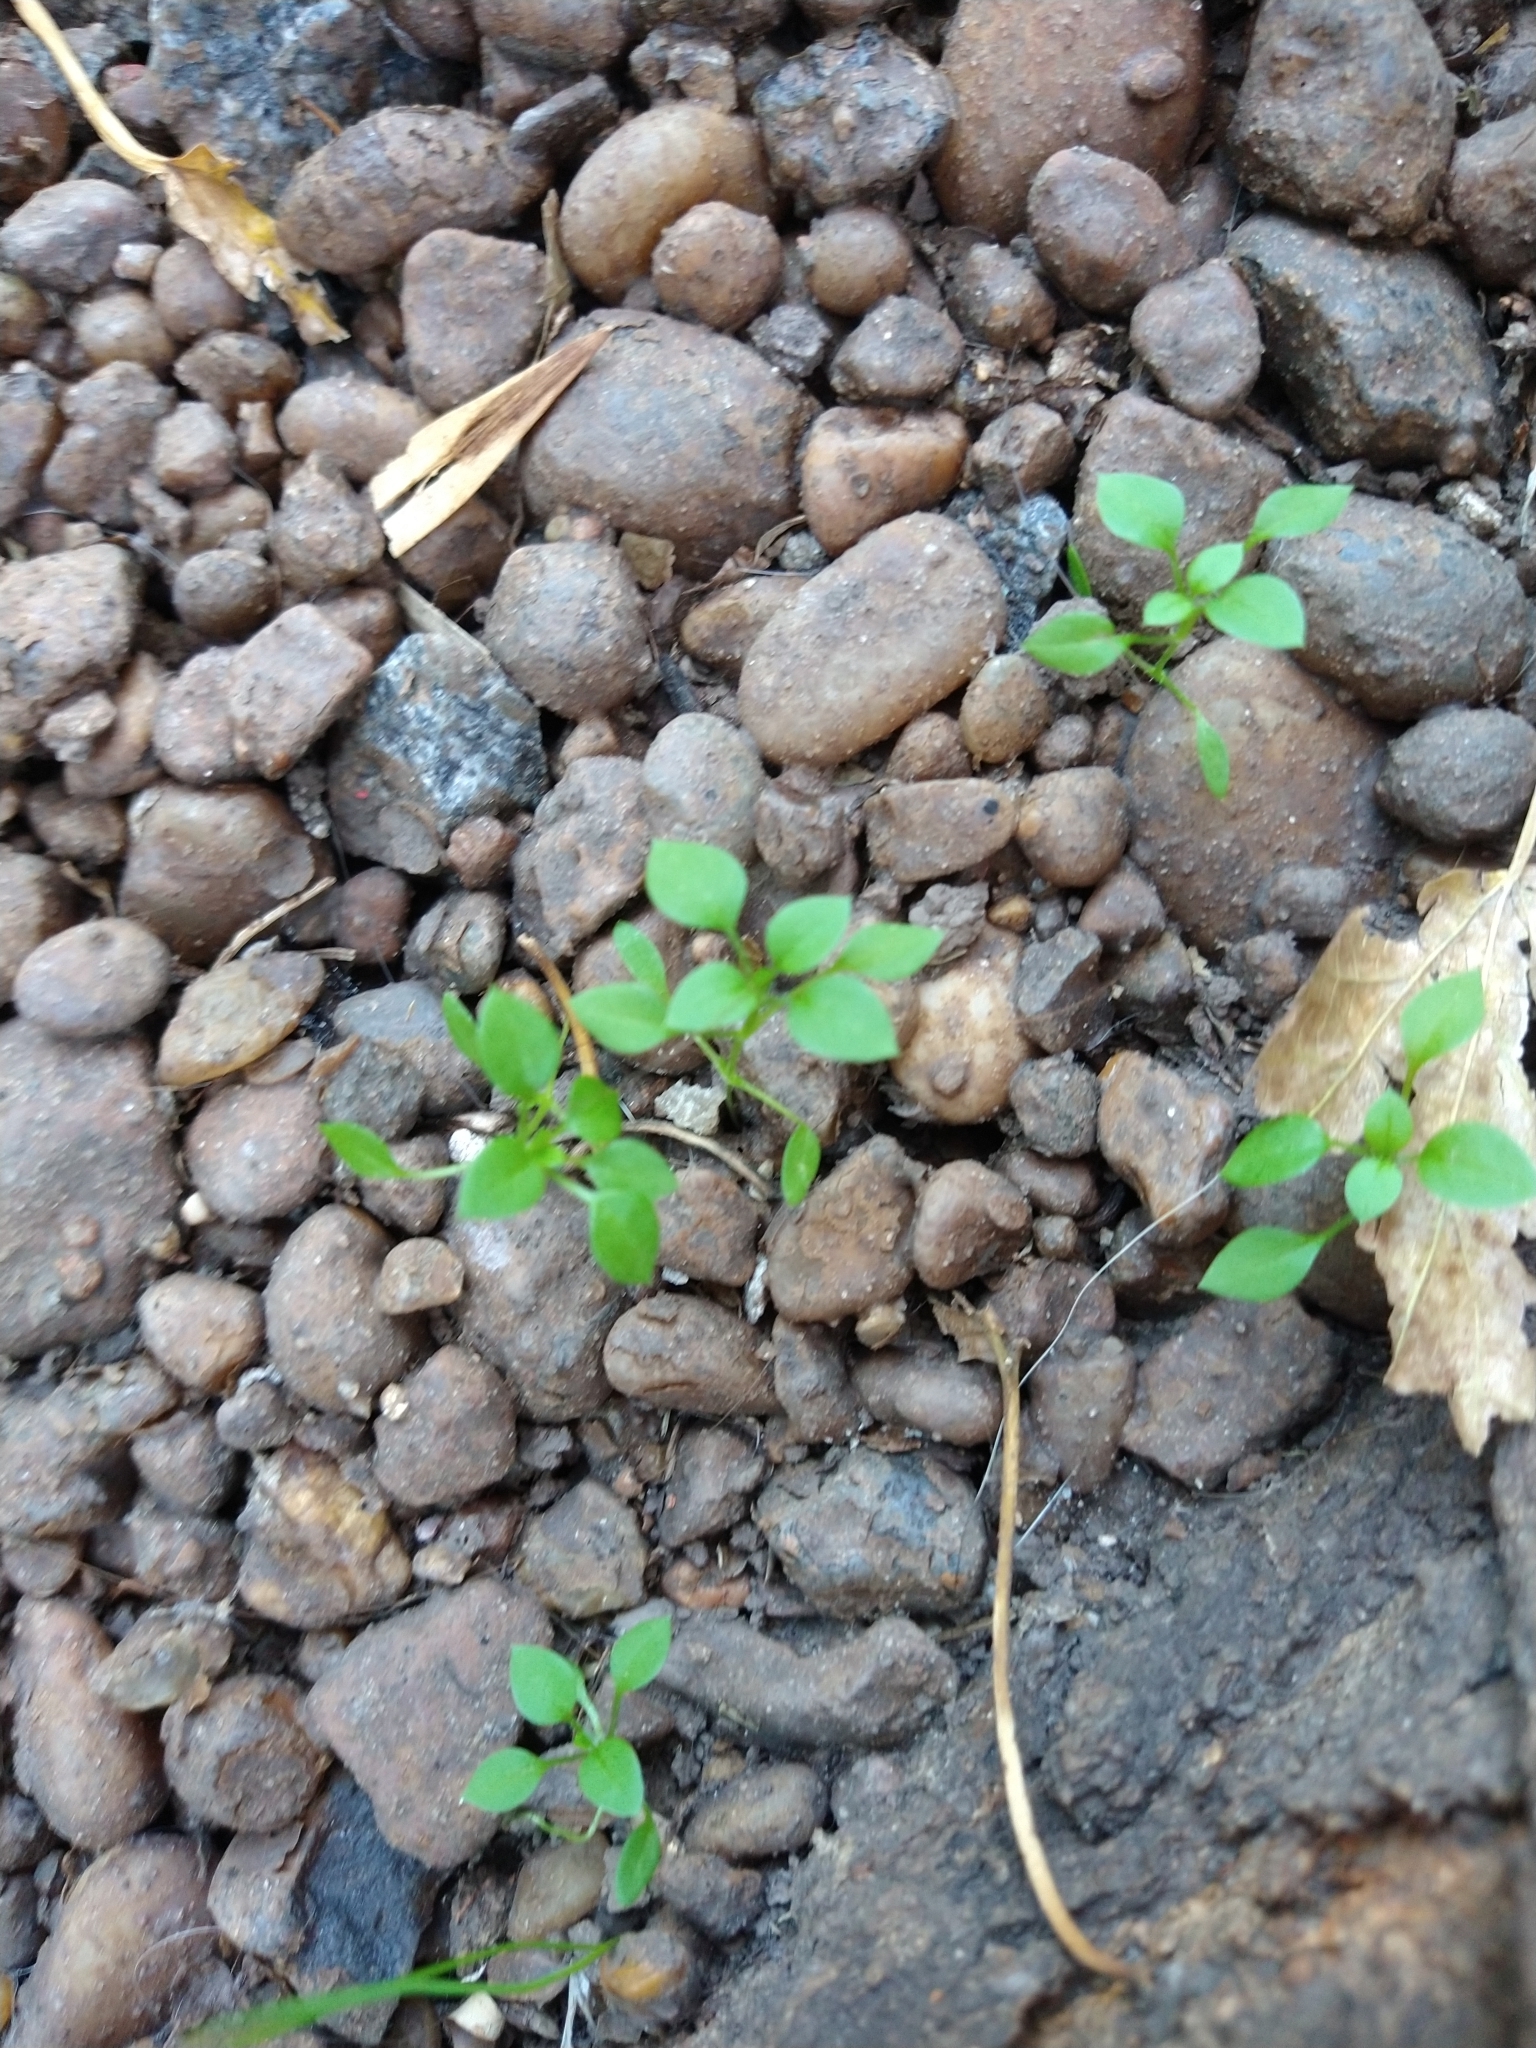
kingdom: Plantae
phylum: Tracheophyta
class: Magnoliopsida
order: Caryophyllales
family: Caryophyllaceae
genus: Stellaria
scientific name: Stellaria media
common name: Common chickweed
